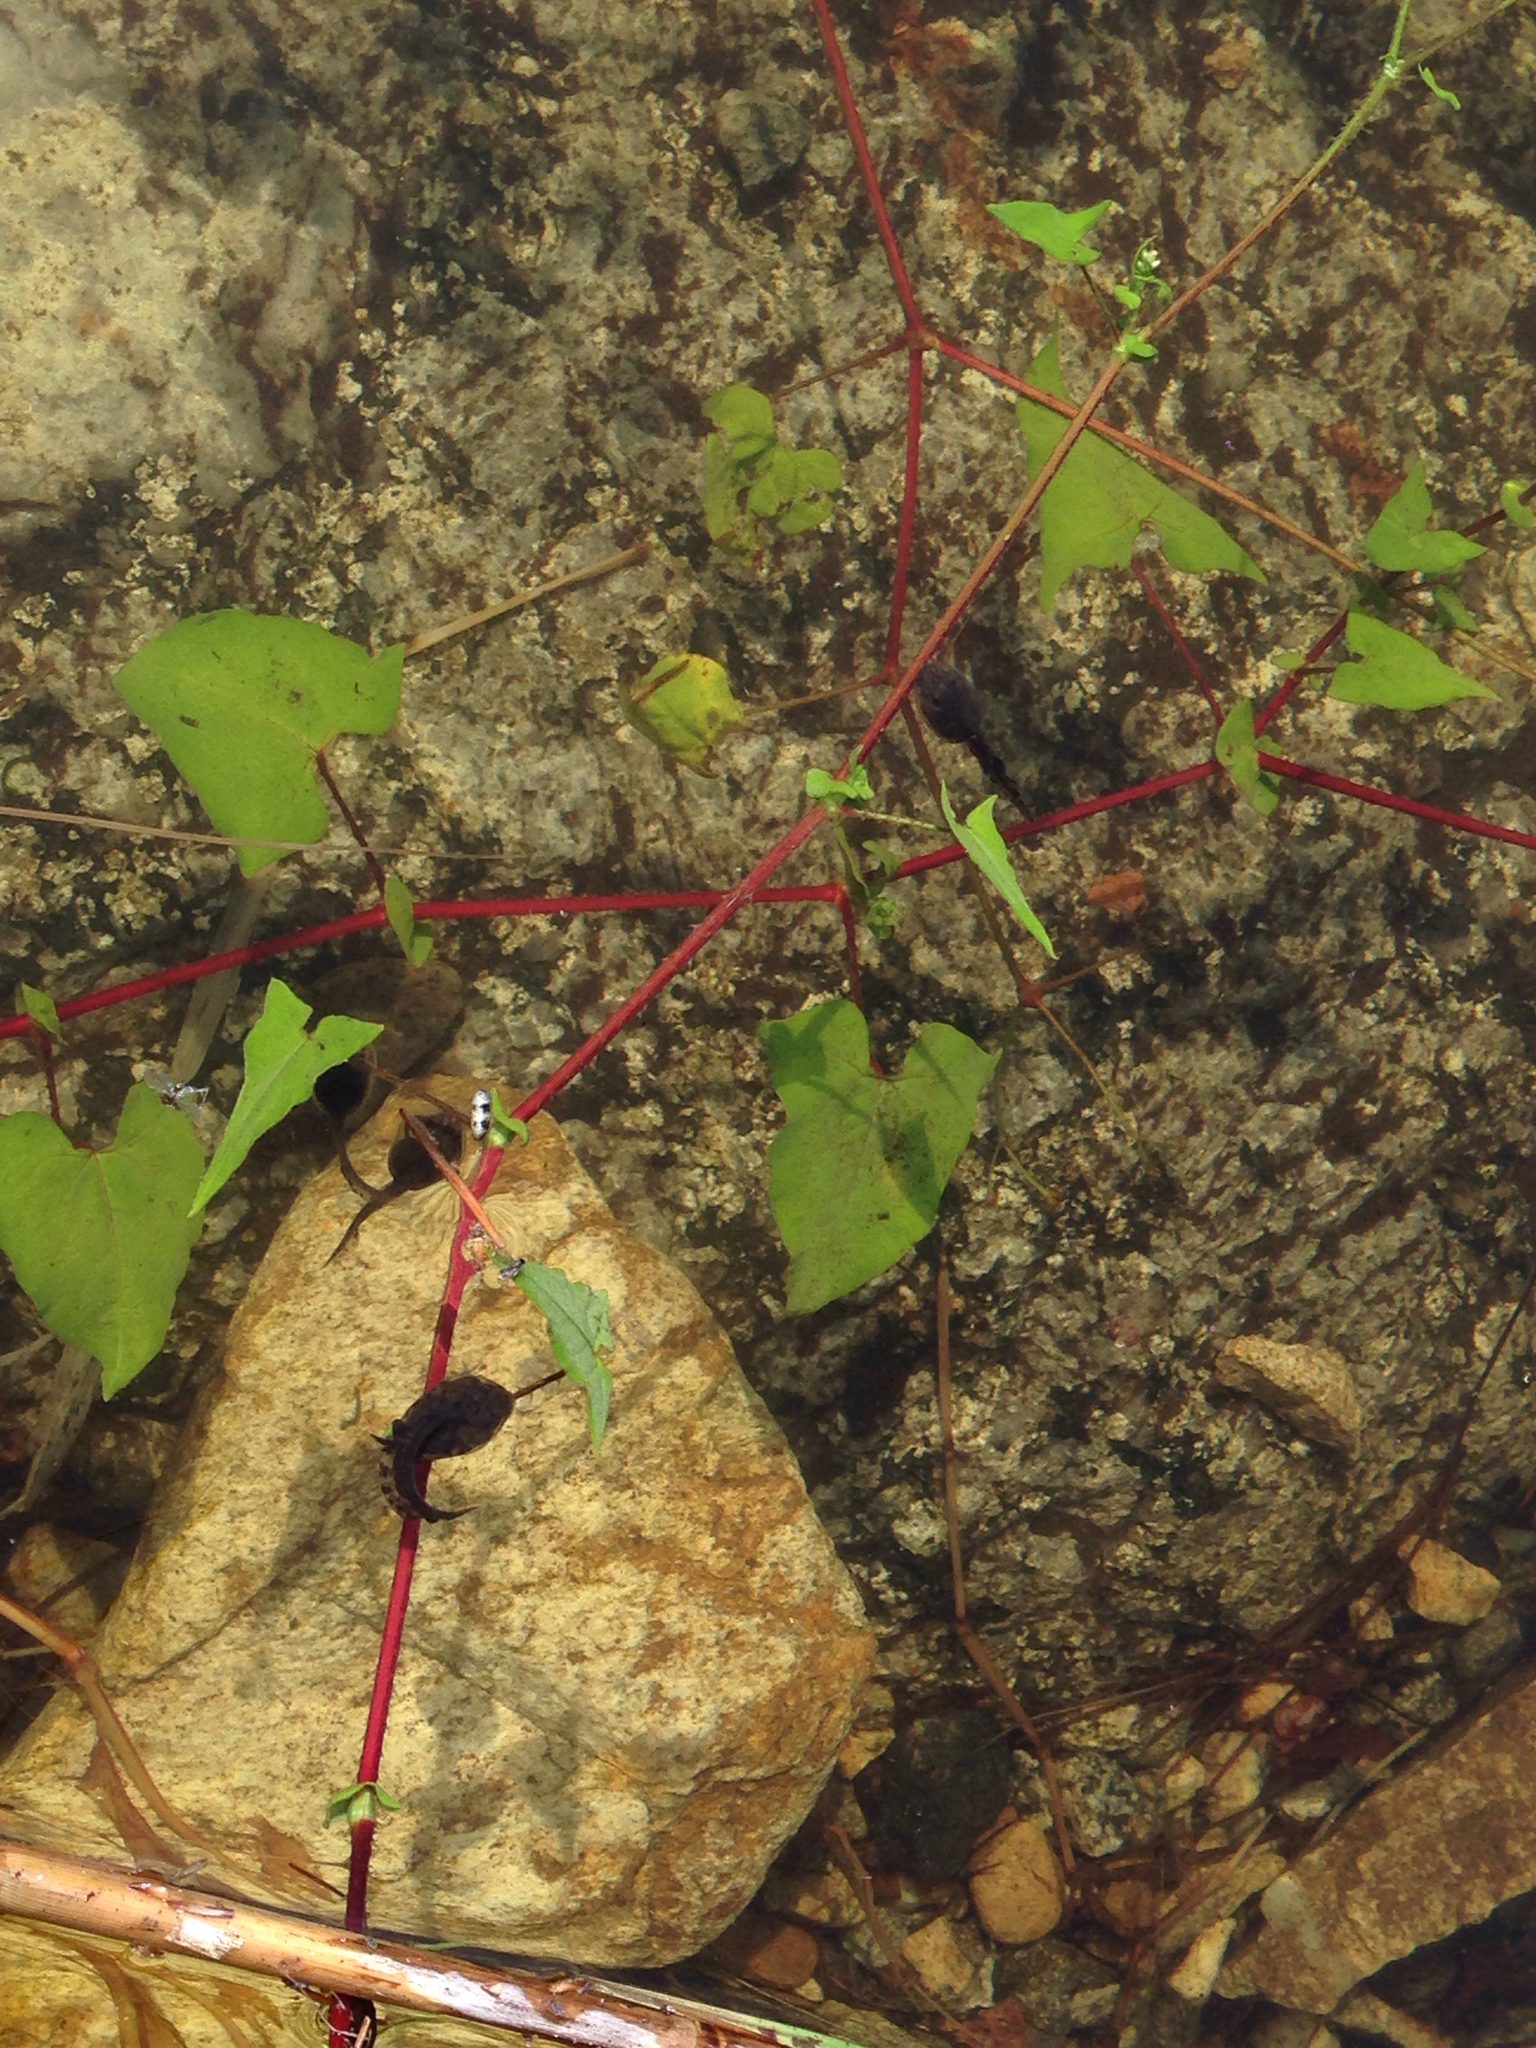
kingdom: Animalia
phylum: Chordata
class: Amphibia
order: Anura
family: Bombinatoridae
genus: Bombina
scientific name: Bombina orientalis
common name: Oriental firebelly toad
